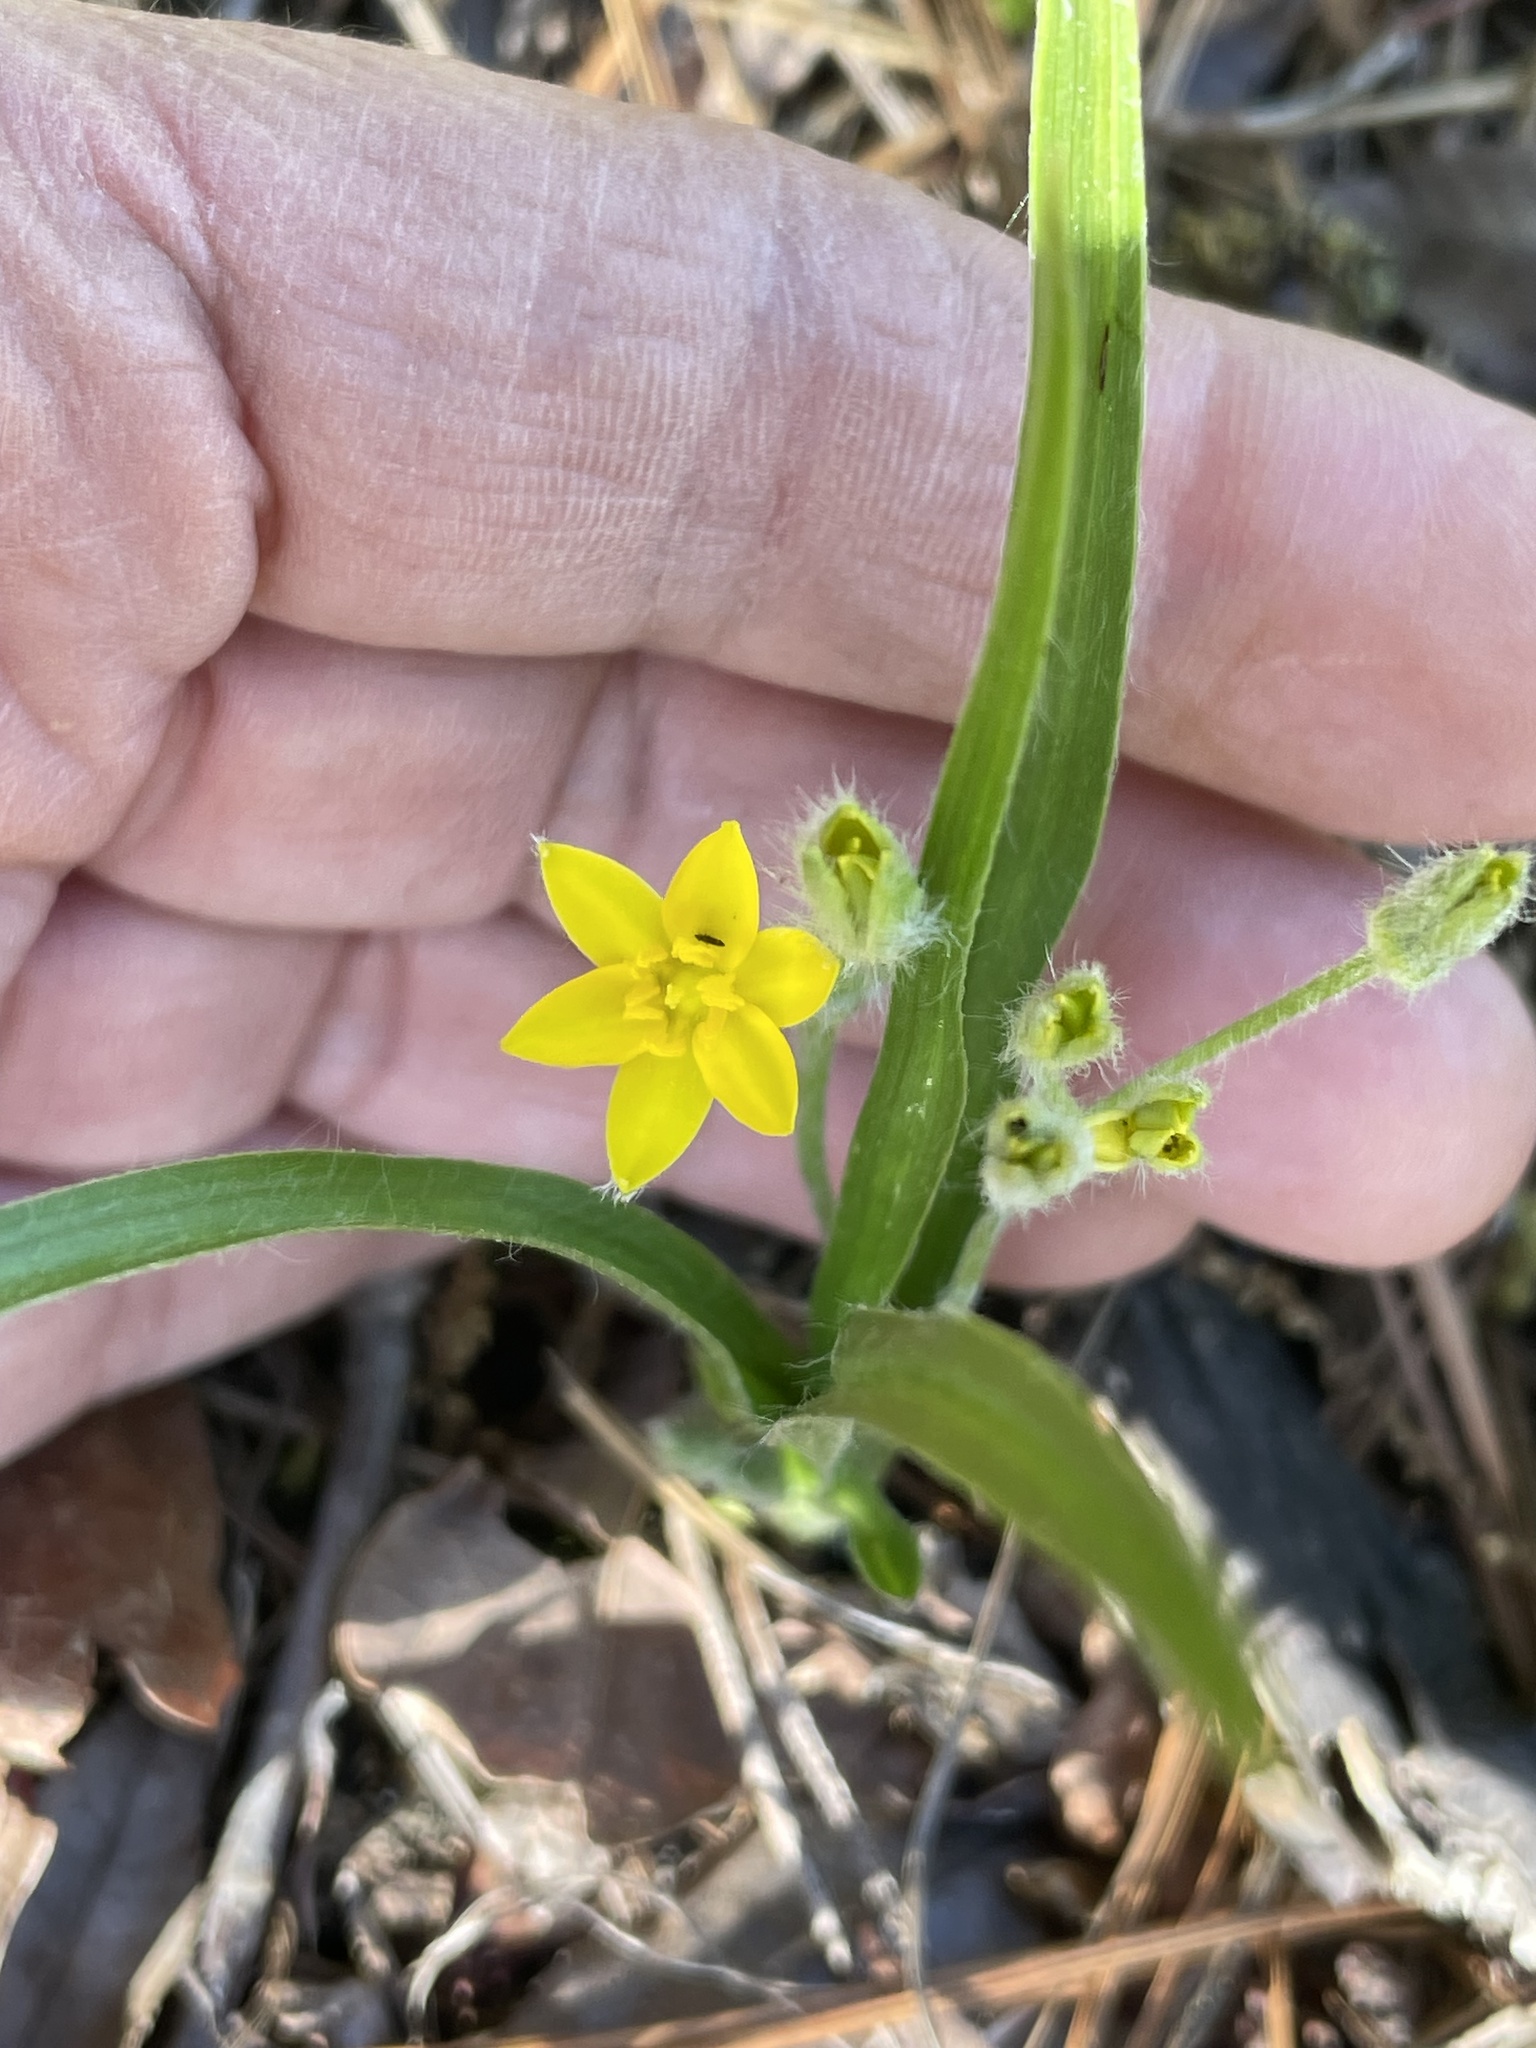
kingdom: Plantae
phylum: Tracheophyta
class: Liliopsida
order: Asparagales
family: Hypoxidaceae
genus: Hypoxis
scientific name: Hypoxis hirsuta
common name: Common goldstar
